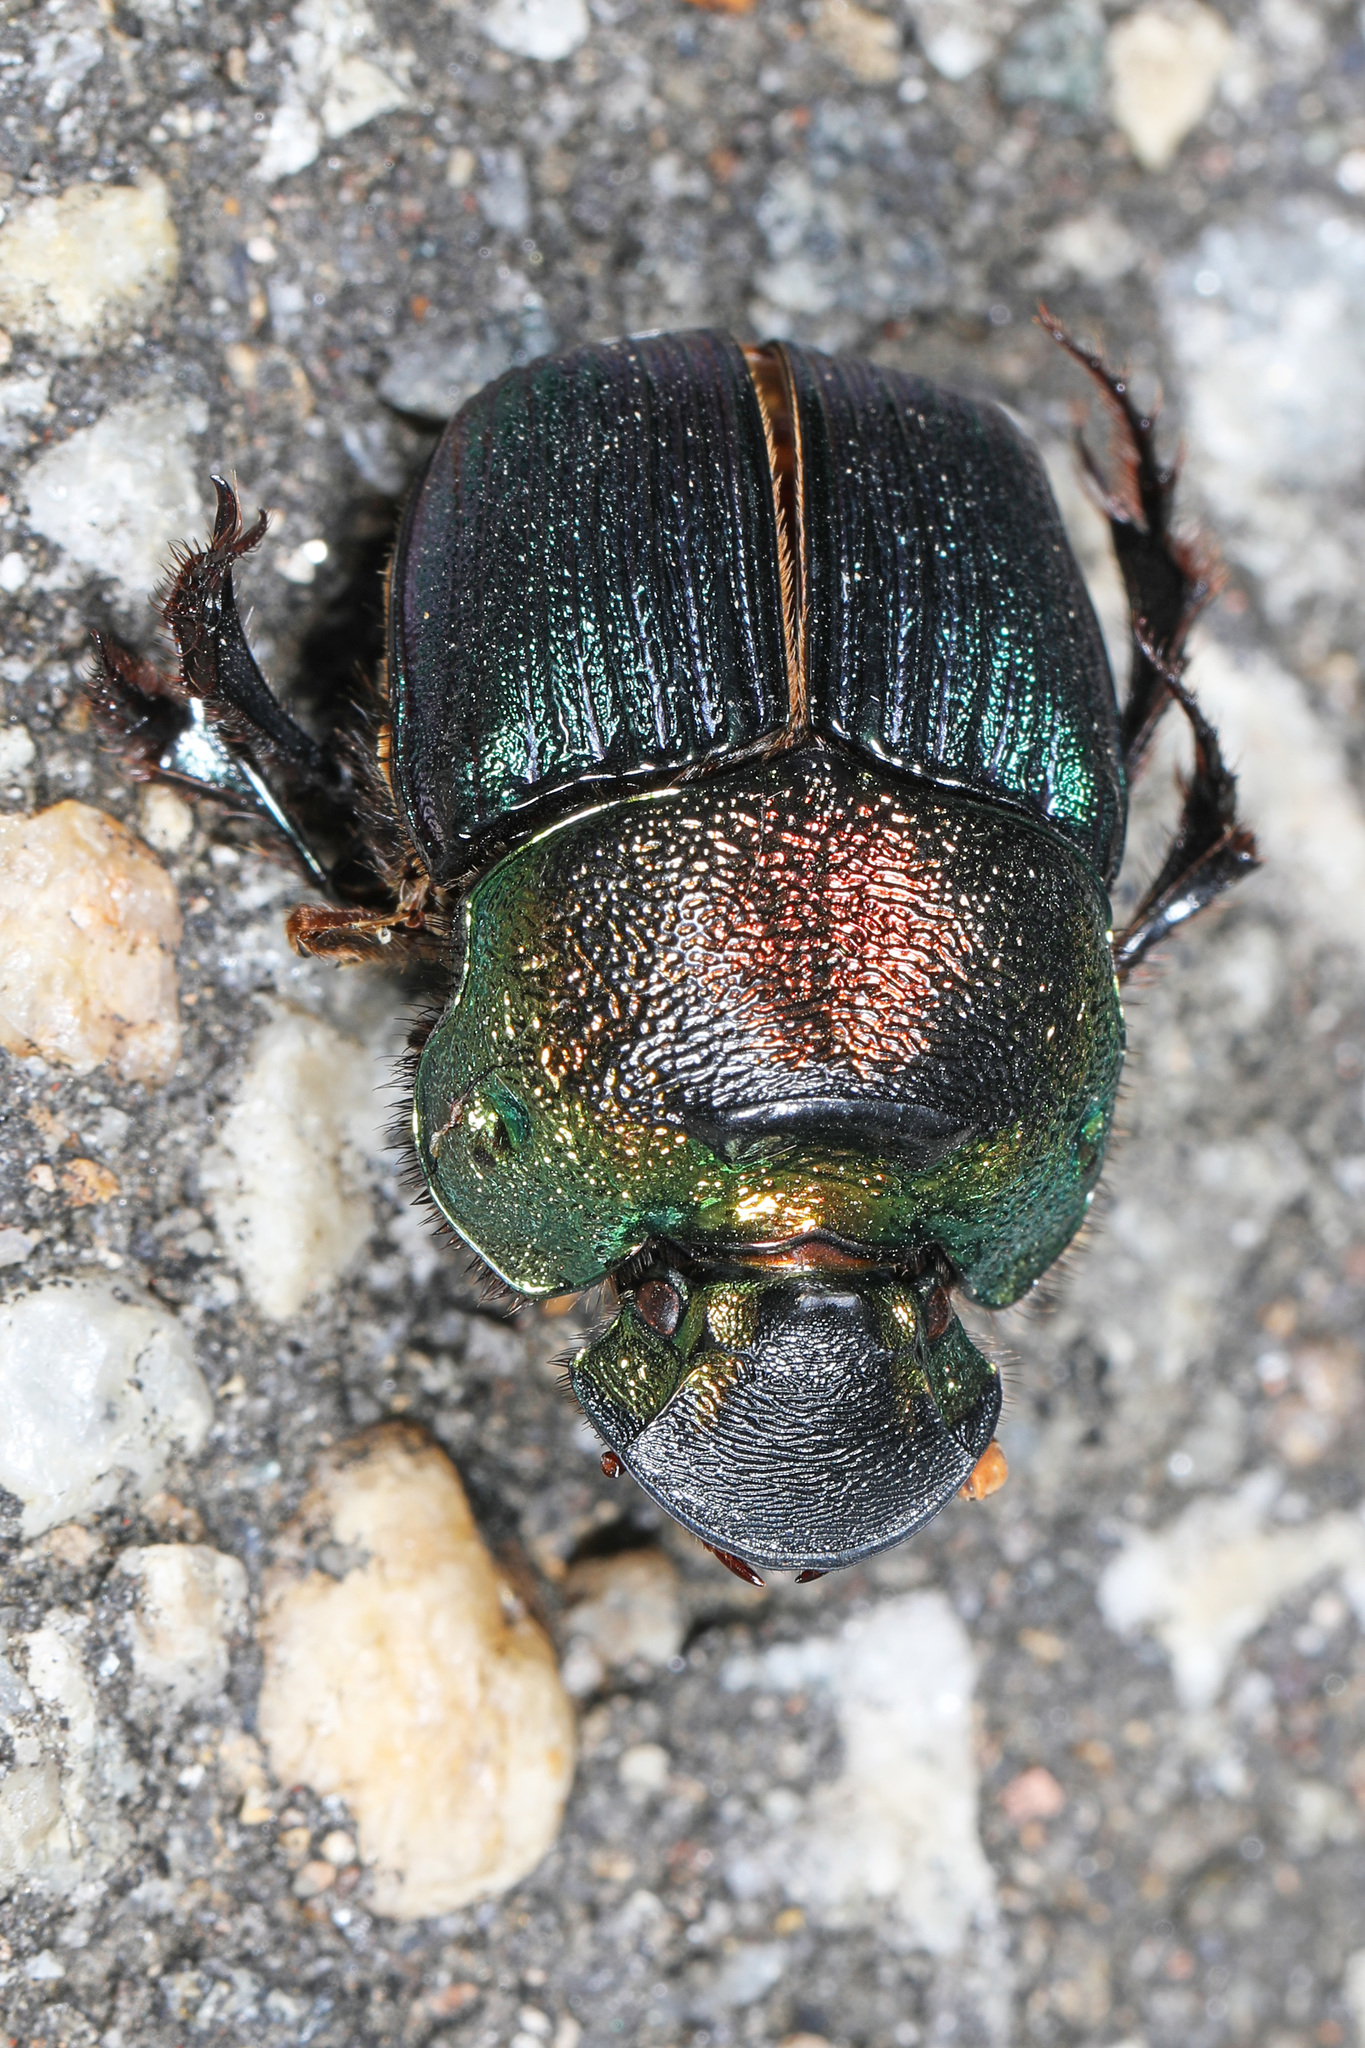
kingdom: Animalia
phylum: Arthropoda
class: Insecta
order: Coleoptera
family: Scarabaeidae
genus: Phanaeus
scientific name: Phanaeus vindex
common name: Rainbow scarab
